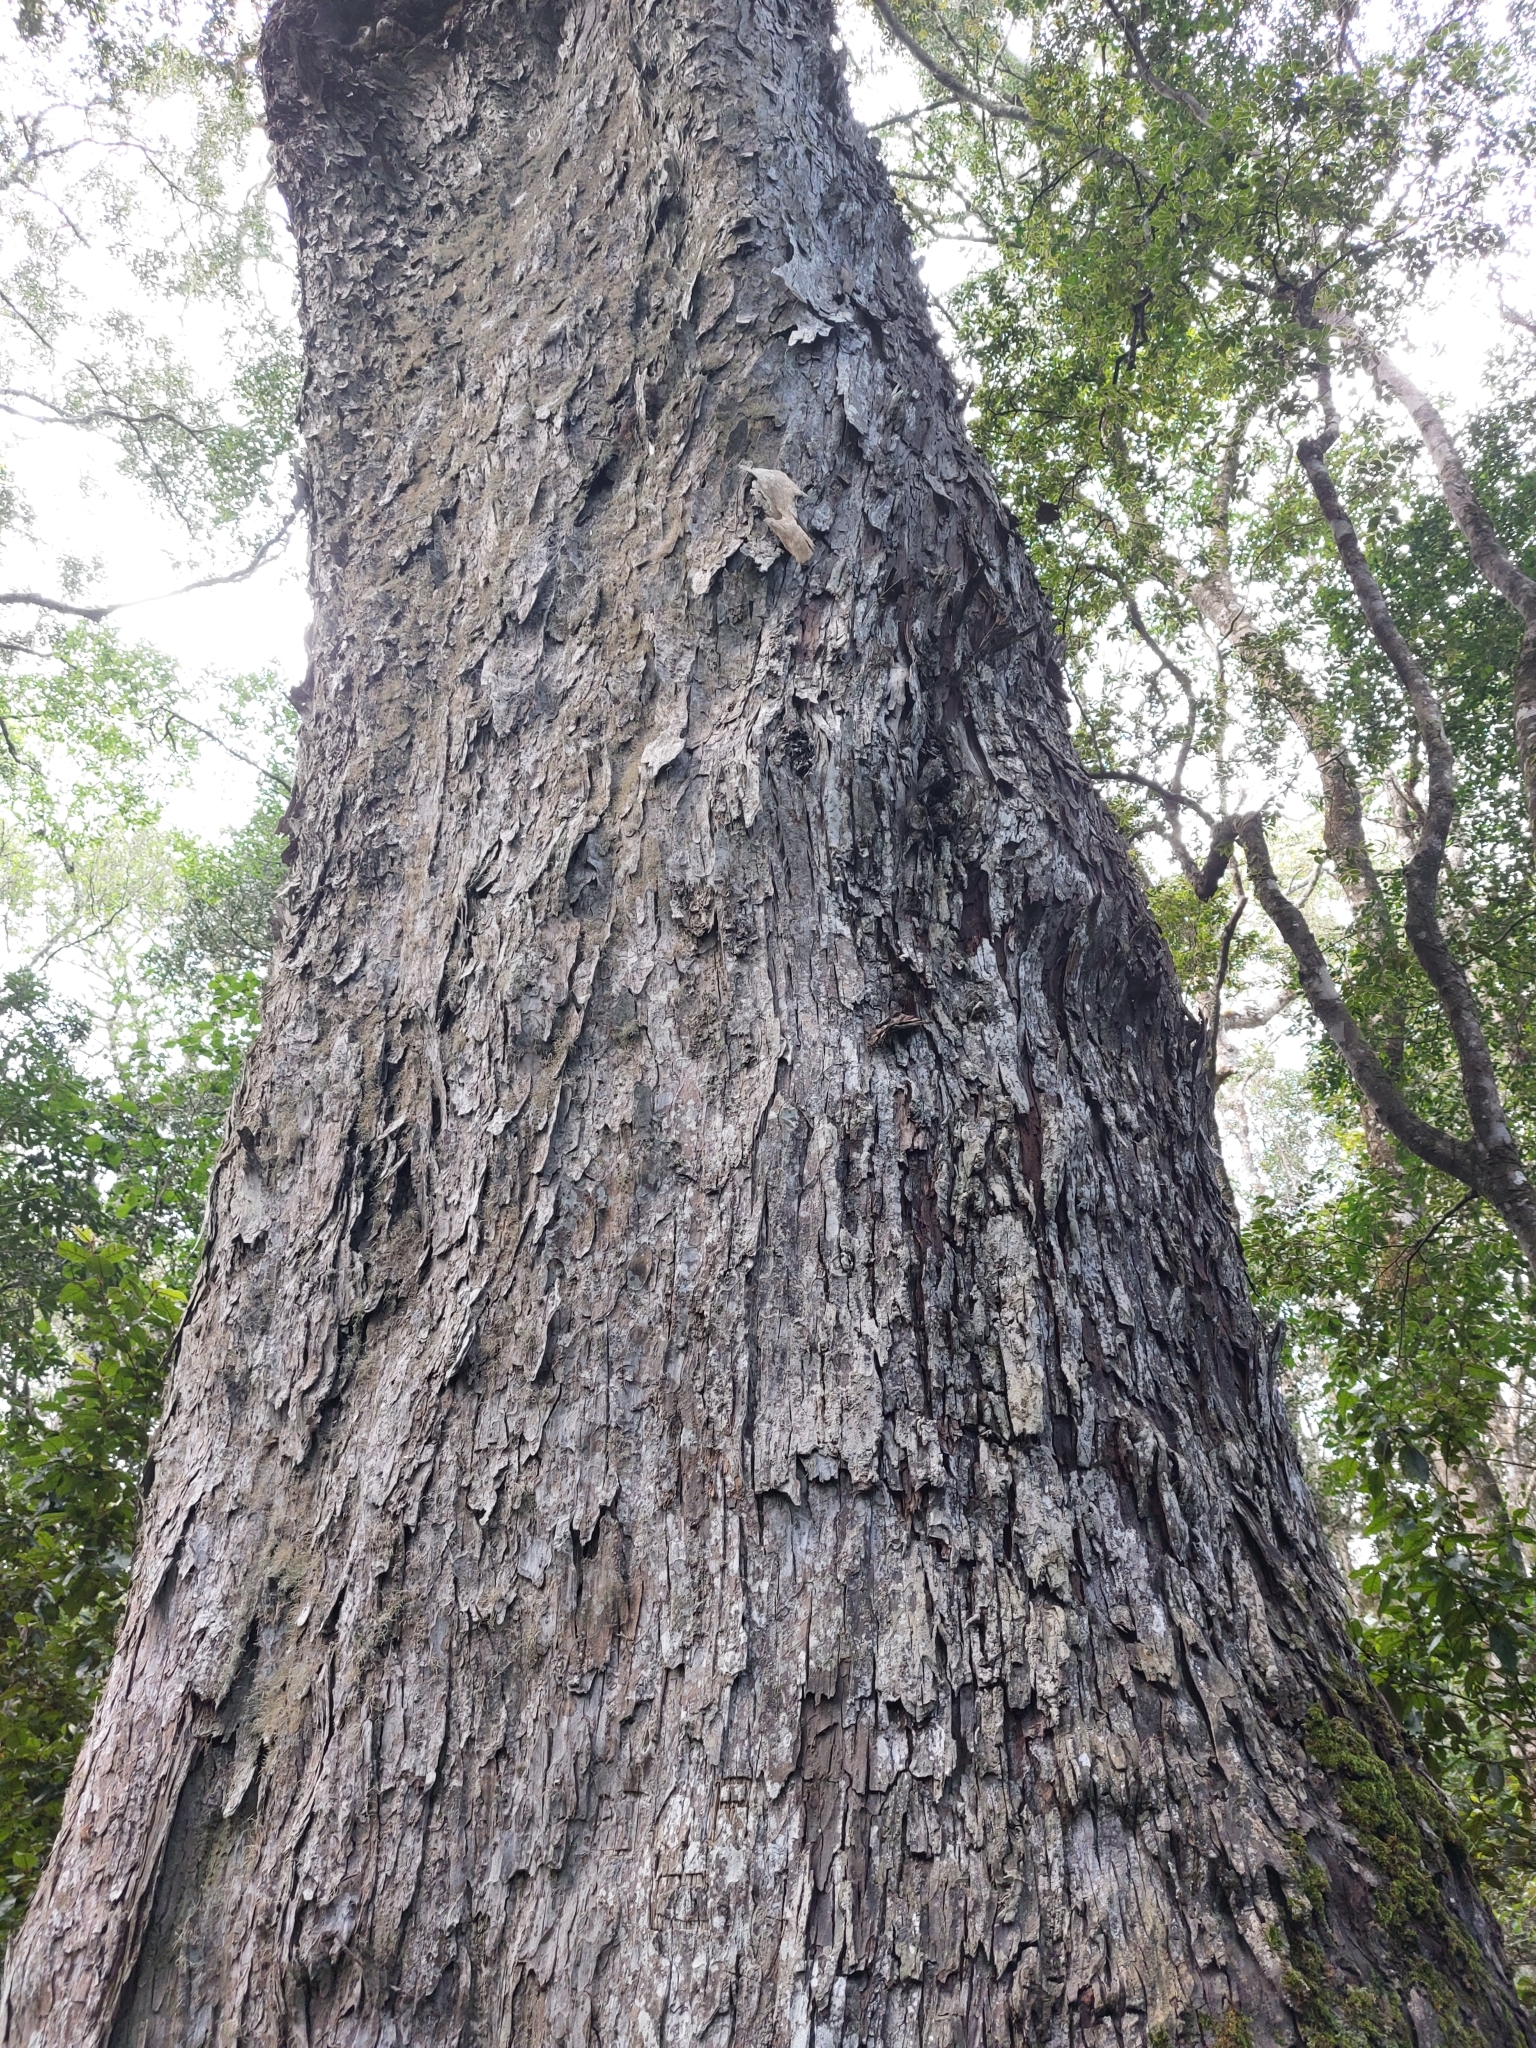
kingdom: Plantae
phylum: Tracheophyta
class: Pinopsida
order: Pinales
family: Podocarpaceae
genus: Afrocarpus
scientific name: Afrocarpus falcatus
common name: Bastard yellowwood
